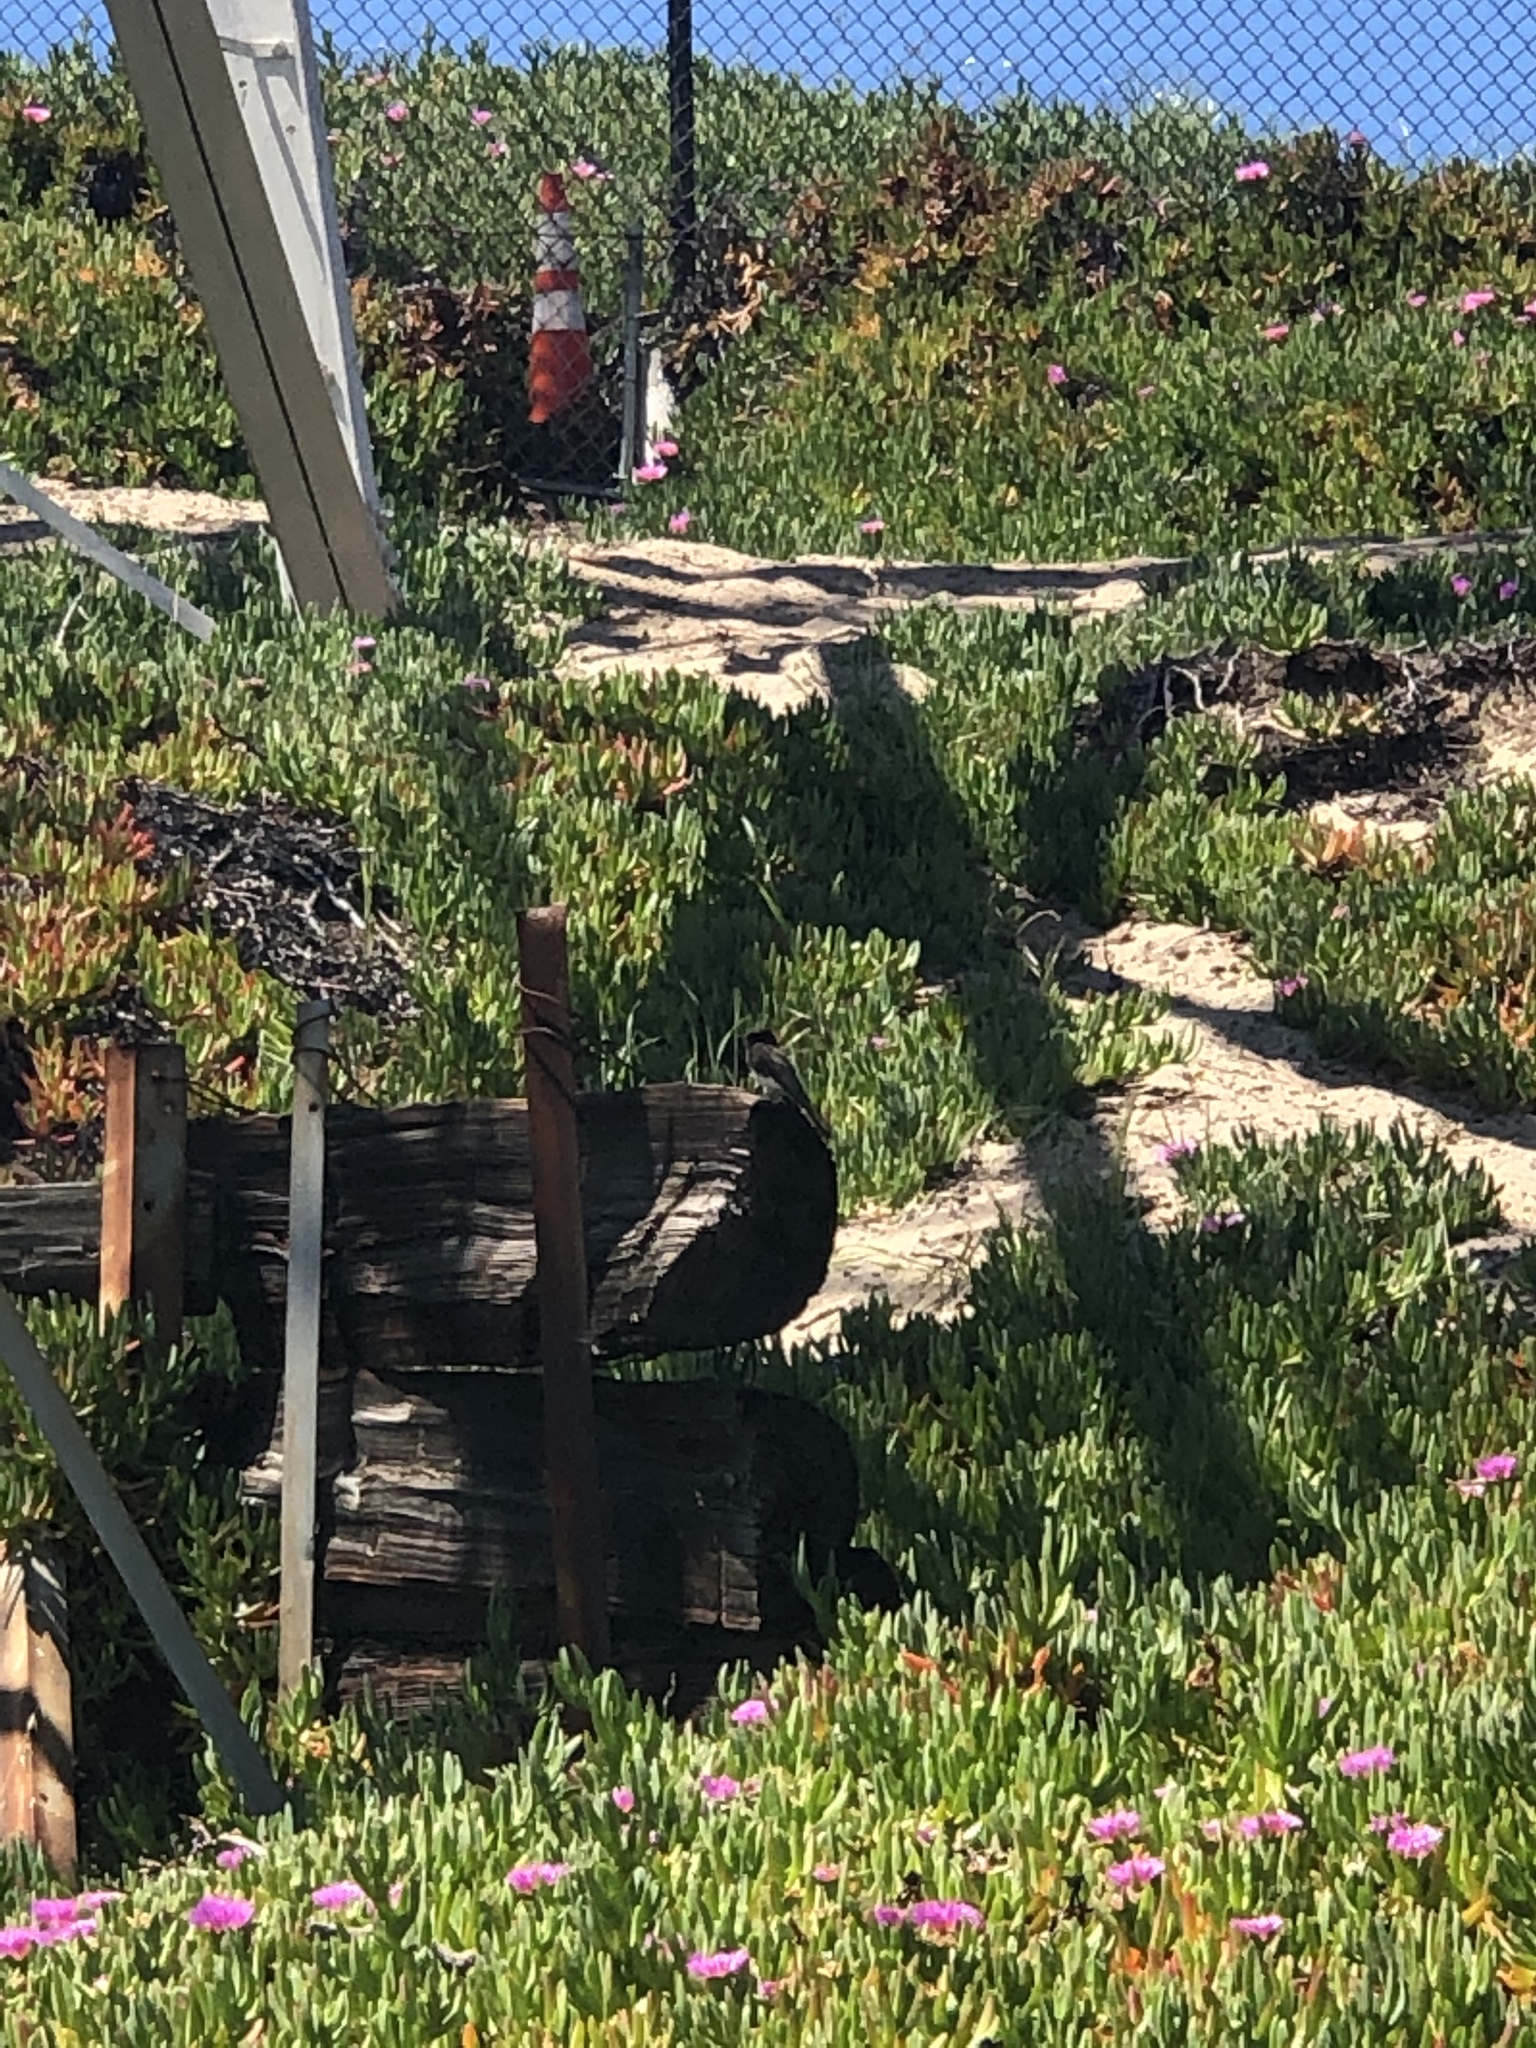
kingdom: Animalia
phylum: Chordata
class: Aves
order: Passeriformes
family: Tyrannidae
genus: Sayornis
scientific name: Sayornis nigricans
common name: Black phoebe
